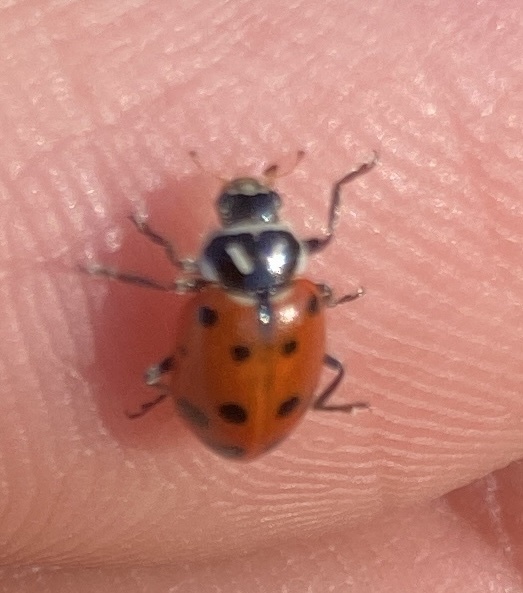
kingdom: Animalia
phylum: Arthropoda
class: Insecta
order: Coleoptera
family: Coccinellidae
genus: Hippodamia
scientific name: Hippodamia convergens
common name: Convergent lady beetle
